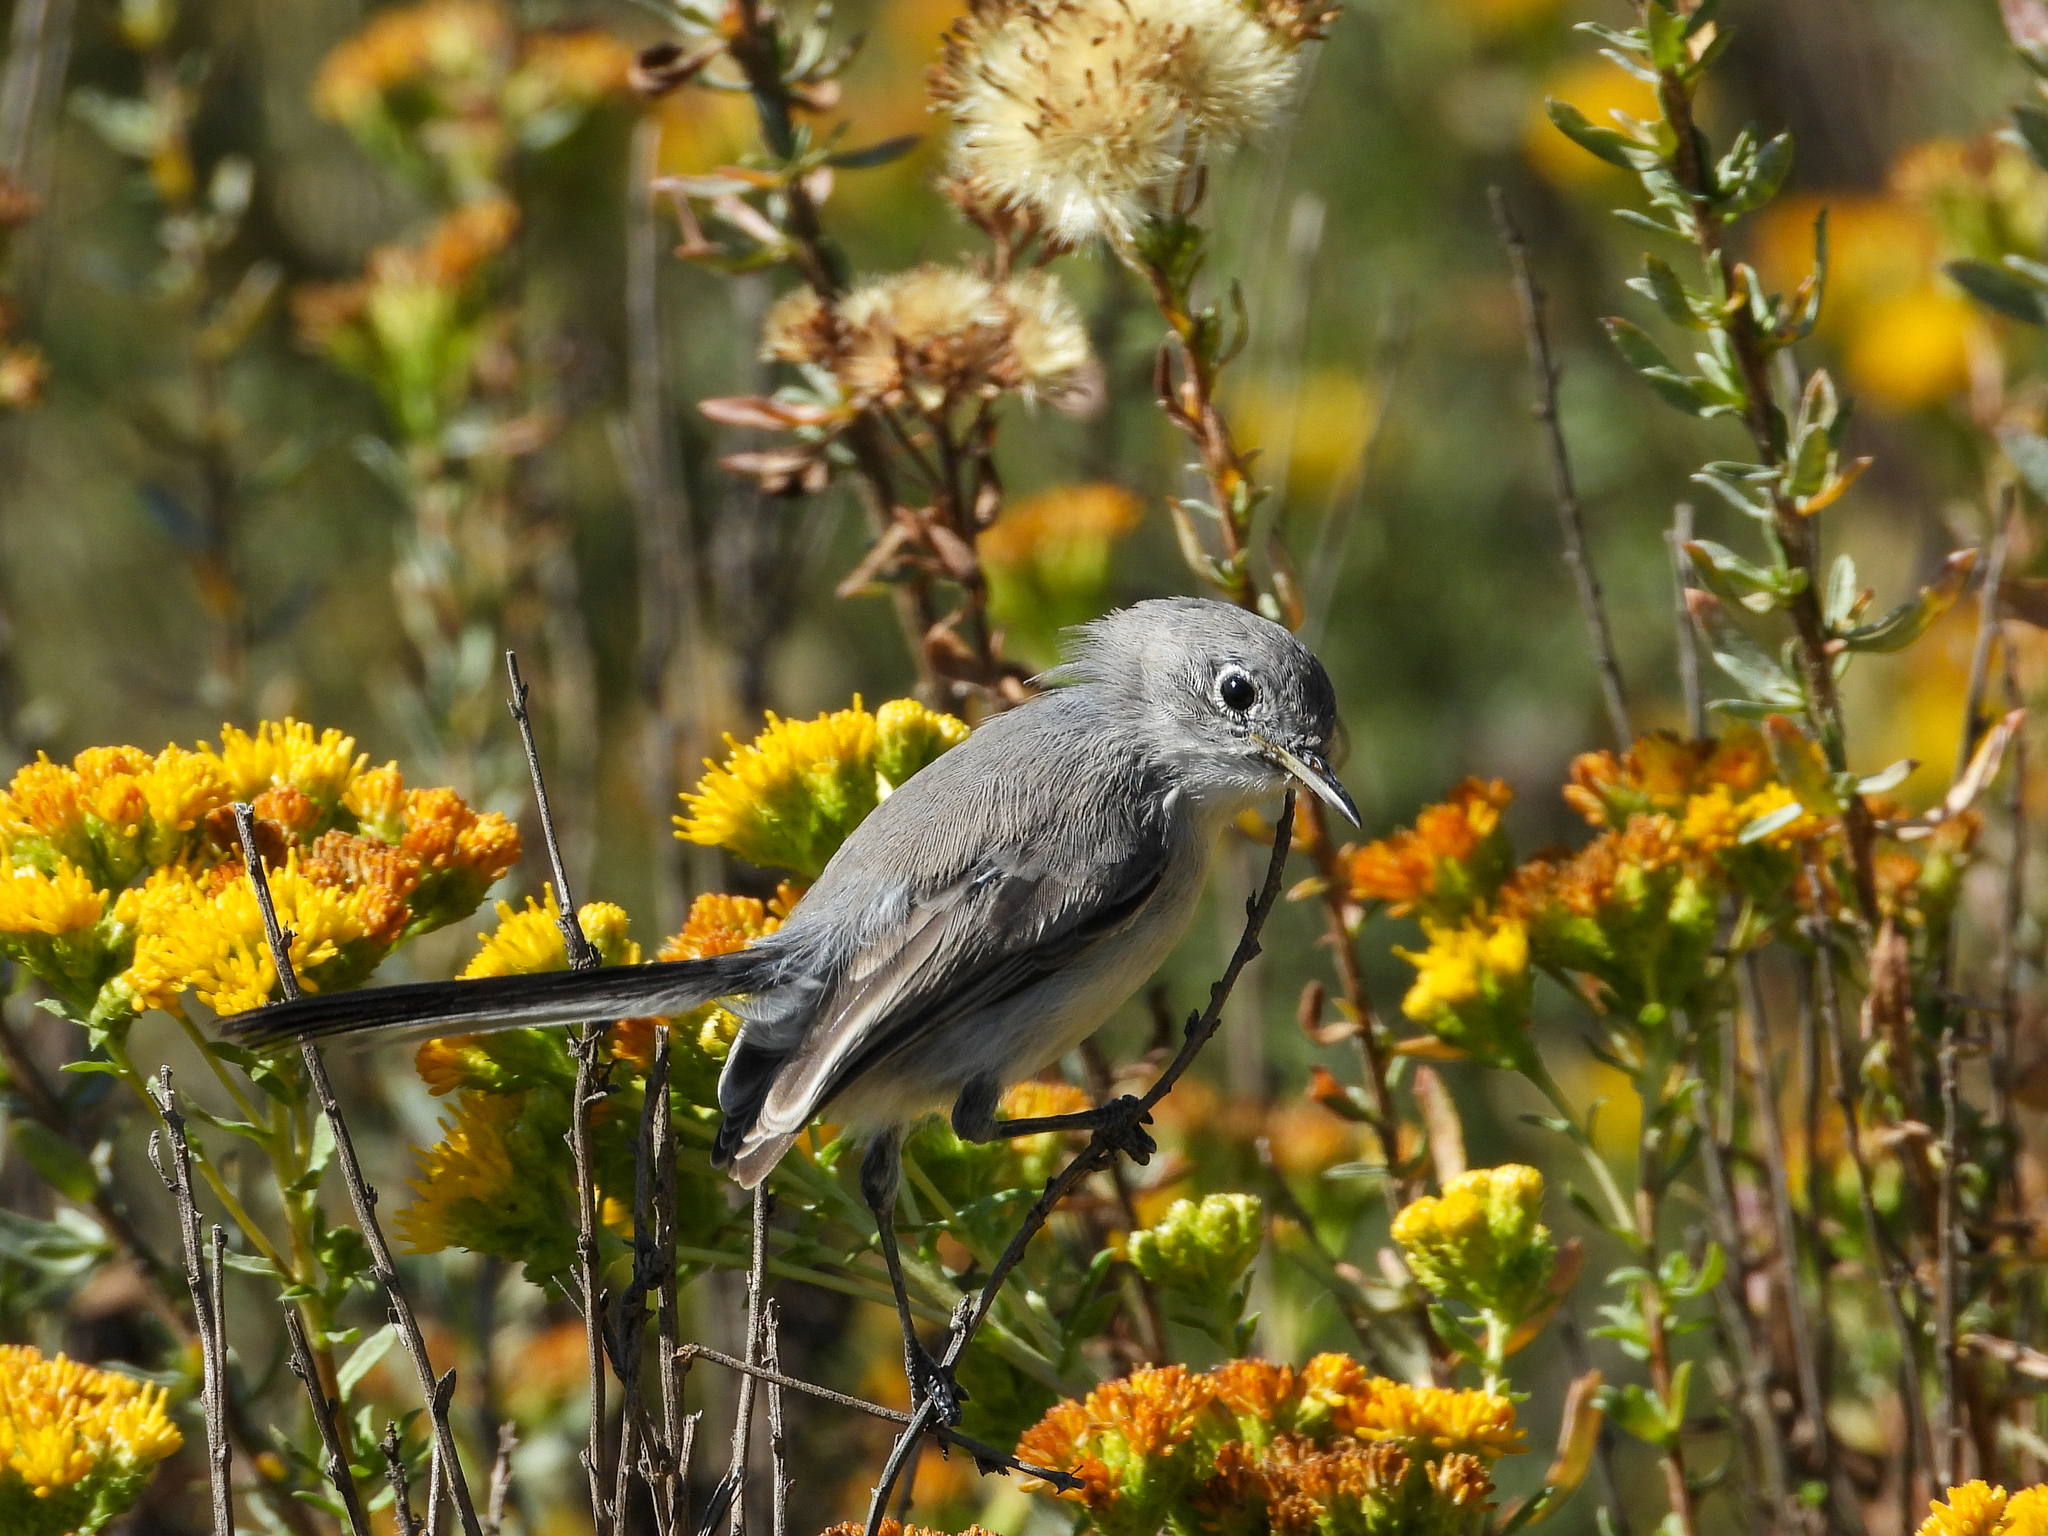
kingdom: Animalia
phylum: Chordata
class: Aves
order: Passeriformes
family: Polioptilidae
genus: Polioptila
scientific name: Polioptila caerulea
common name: Blue-gray gnatcatcher
